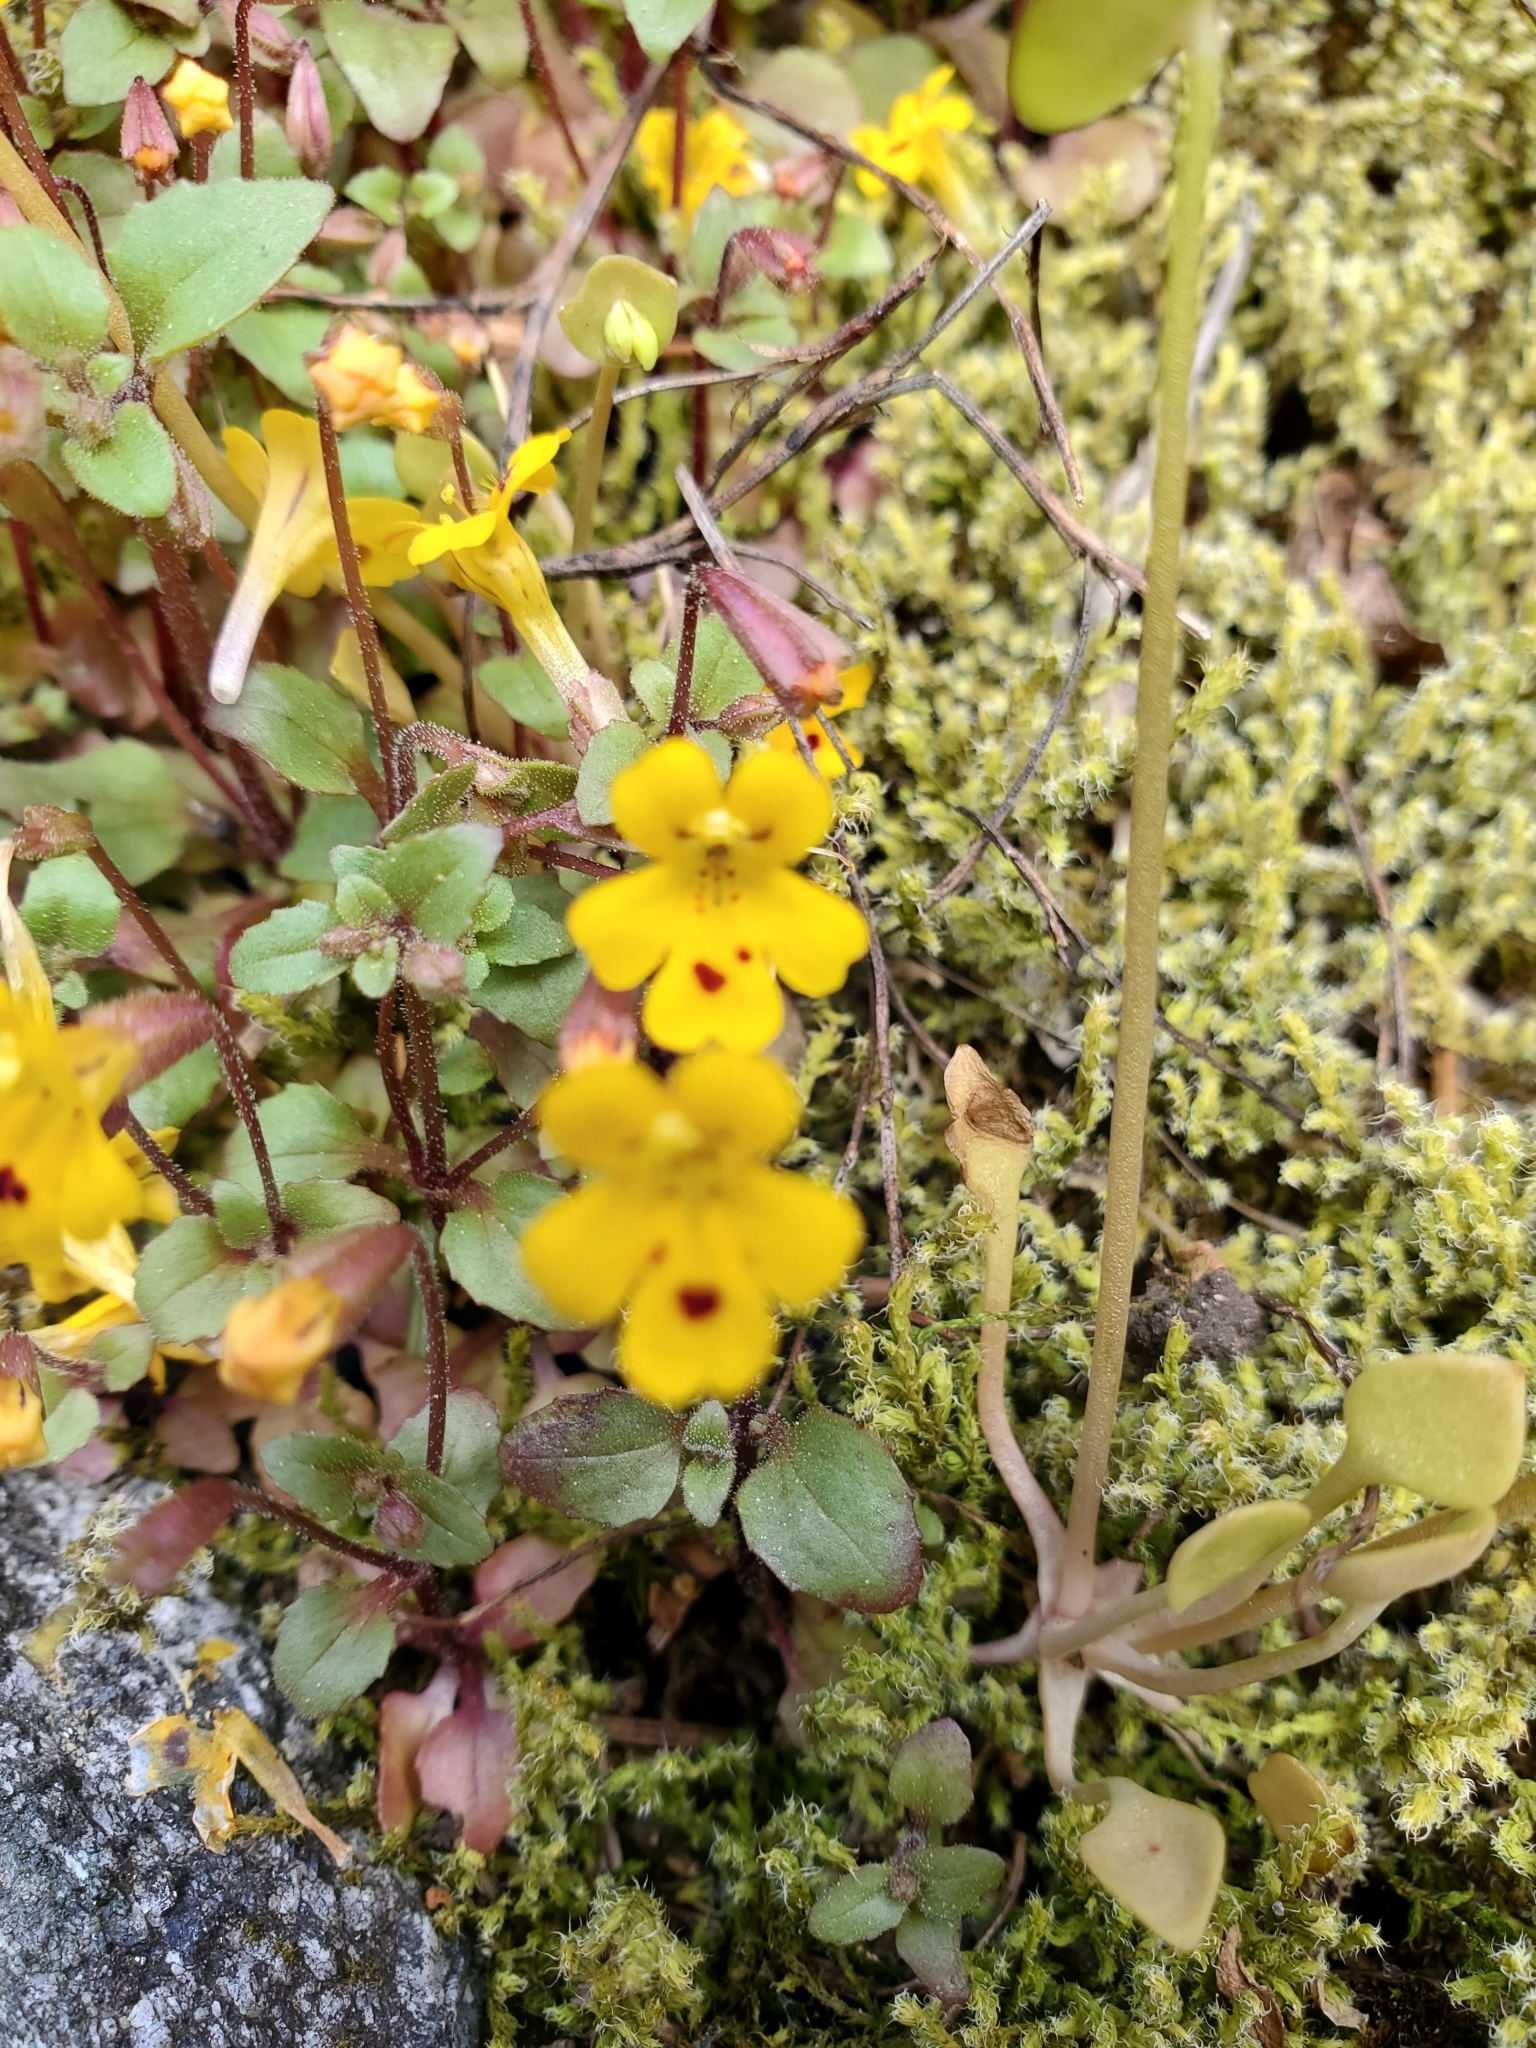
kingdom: Plantae
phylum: Tracheophyta
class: Magnoliopsida
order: Lamiales
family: Phrymaceae
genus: Erythranthe
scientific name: Erythranthe alsinoides
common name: Chickweed monkeyflower
